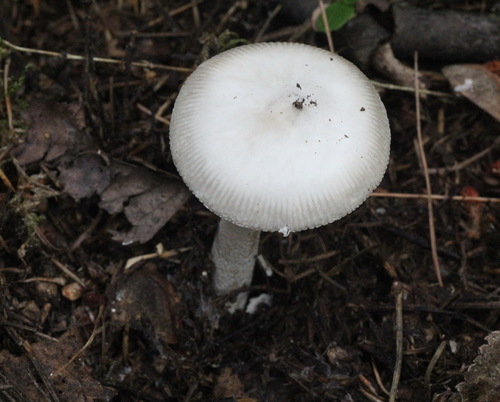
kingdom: Fungi
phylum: Basidiomycota
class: Agaricomycetes
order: Agaricales
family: Amanitaceae
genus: Amanita
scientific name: Amanita vaginata
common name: Grisette
